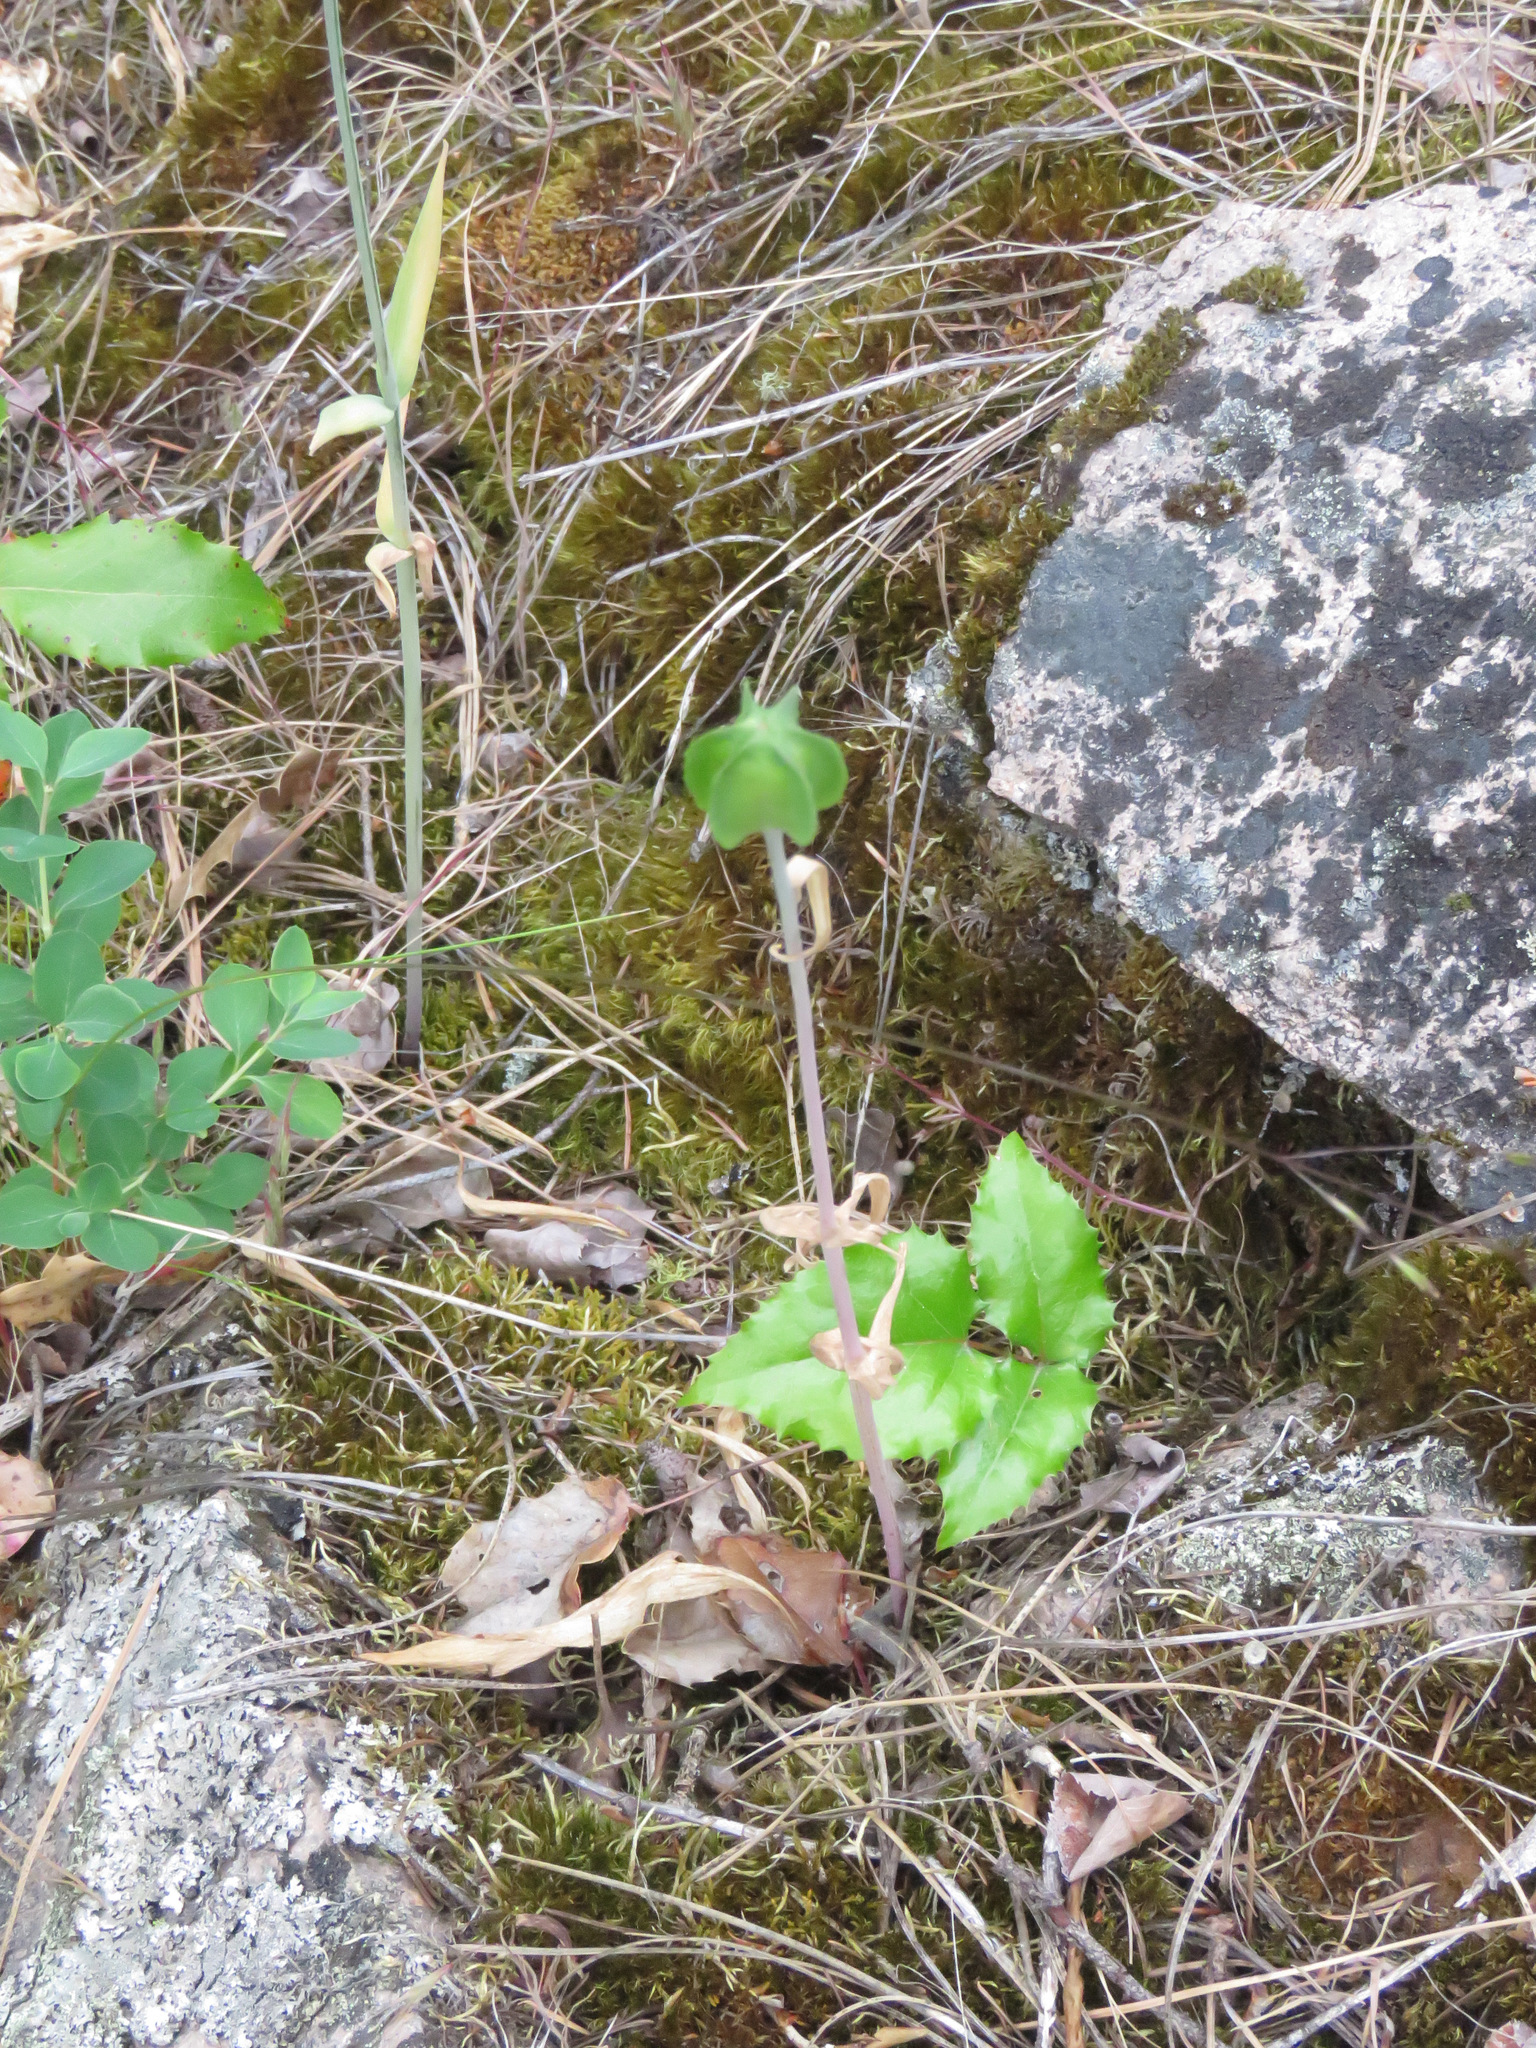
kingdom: Plantae
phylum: Tracheophyta
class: Liliopsida
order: Liliales
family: Liliaceae
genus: Fritillaria
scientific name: Fritillaria affinis
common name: Ojai fritillary
